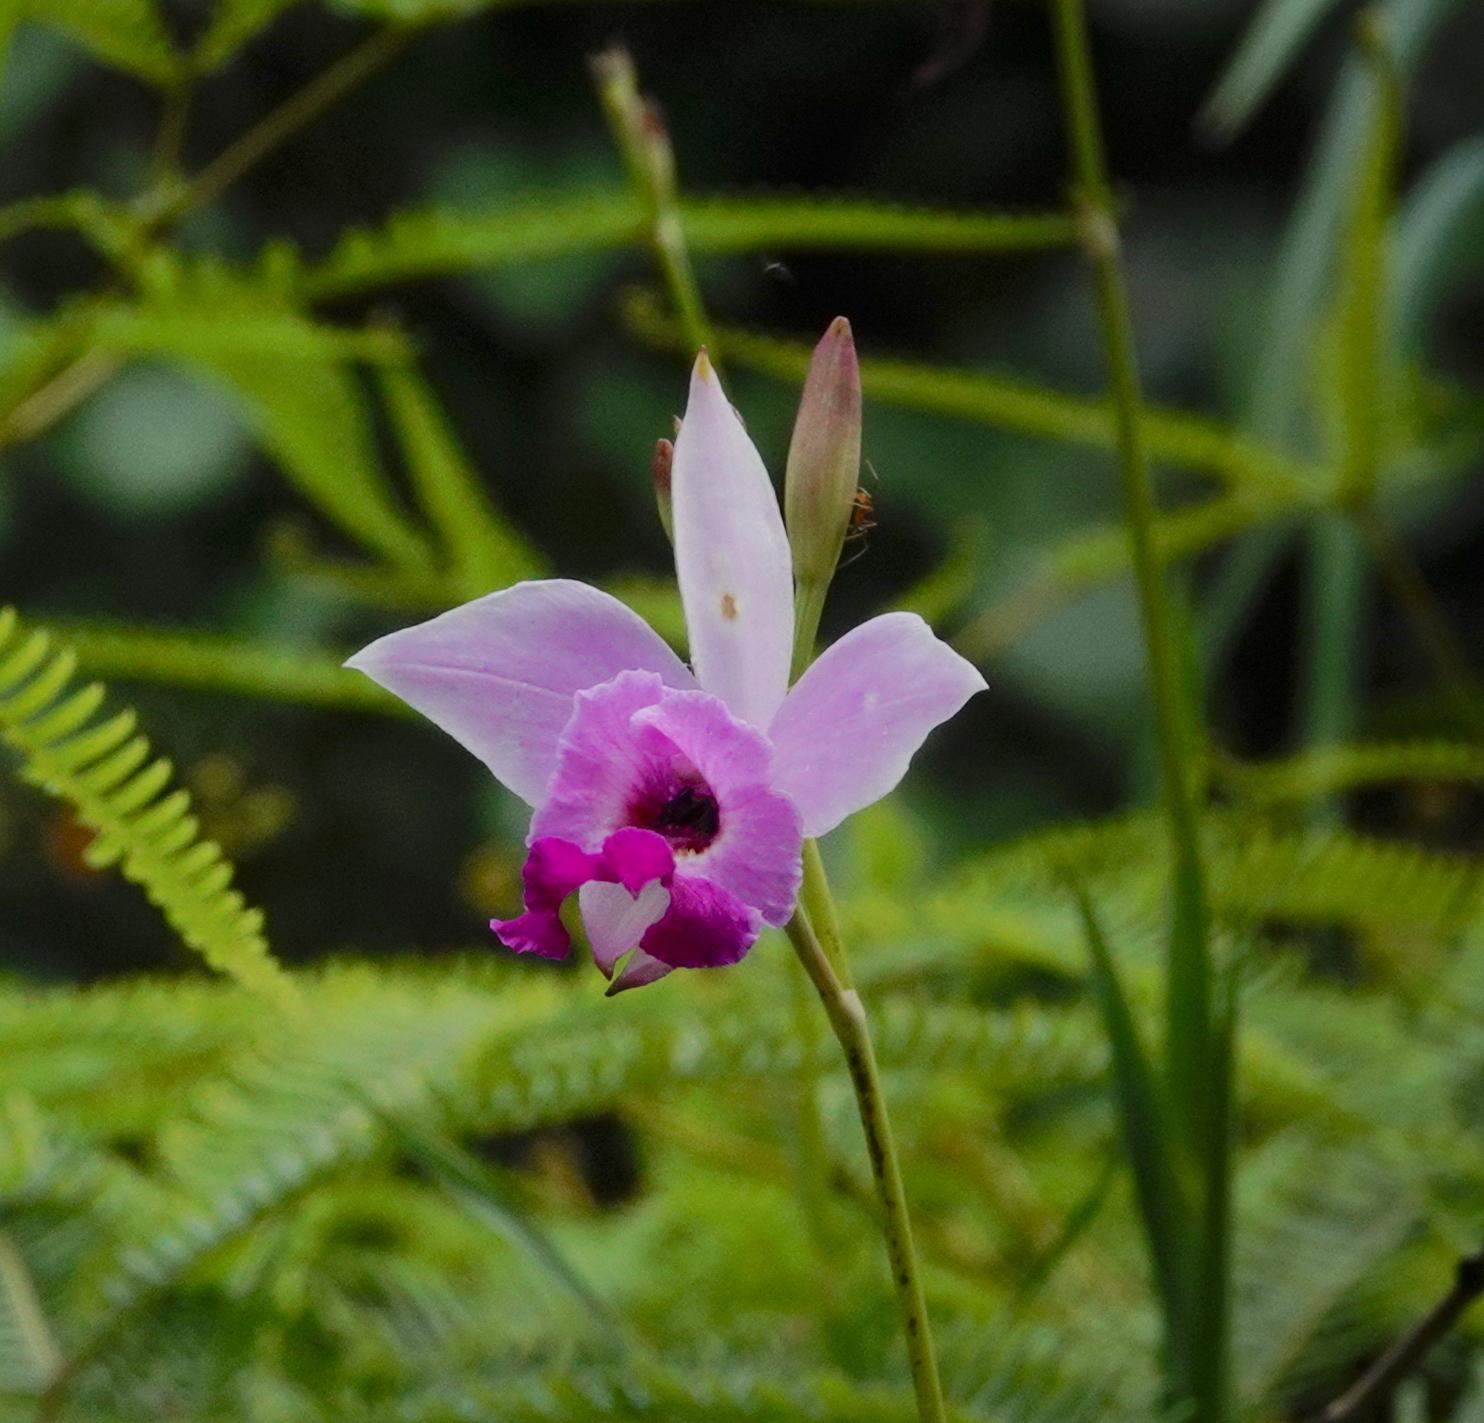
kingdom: Plantae
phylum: Tracheophyta
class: Liliopsida
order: Asparagales
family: Orchidaceae
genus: Arundina
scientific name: Arundina graminifolia
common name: Bamboo orchid
